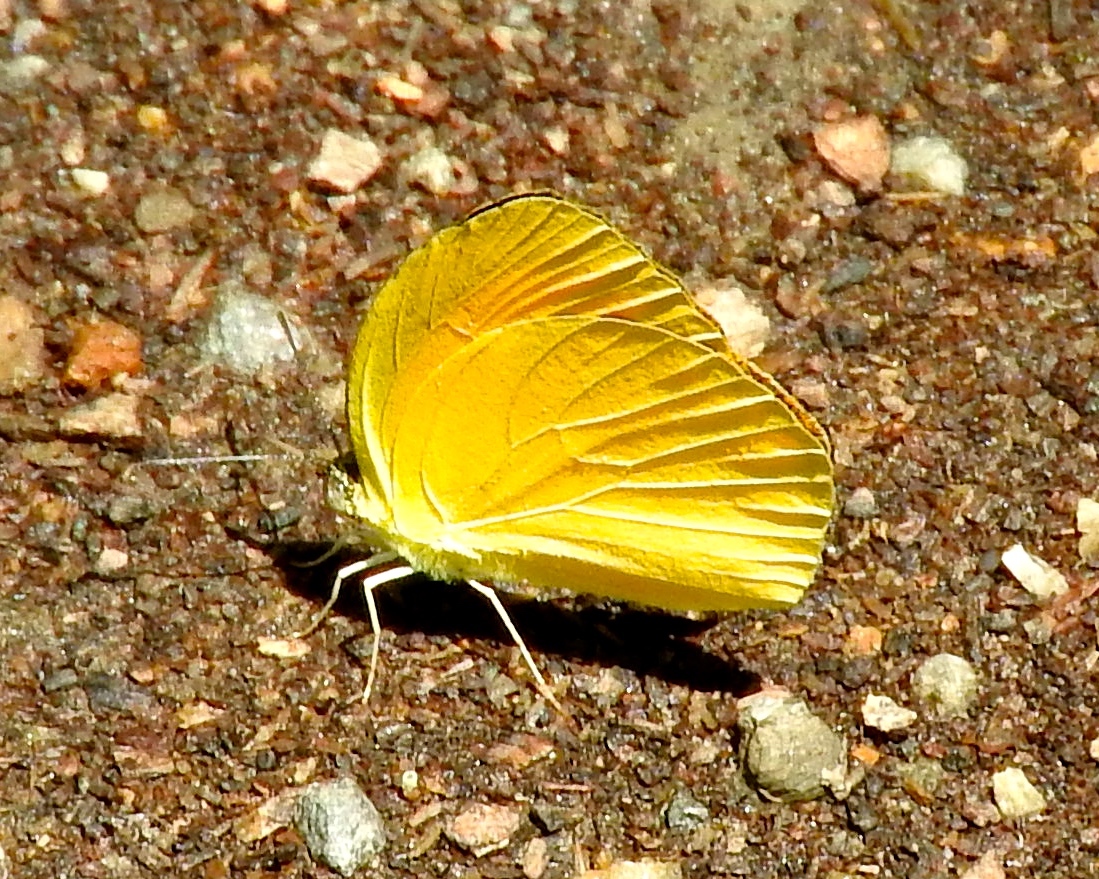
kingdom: Animalia
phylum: Arthropoda
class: Insecta
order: Lepidoptera
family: Pieridae
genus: Pyrisitia
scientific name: Pyrisitia proterpia
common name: Tailed orange
